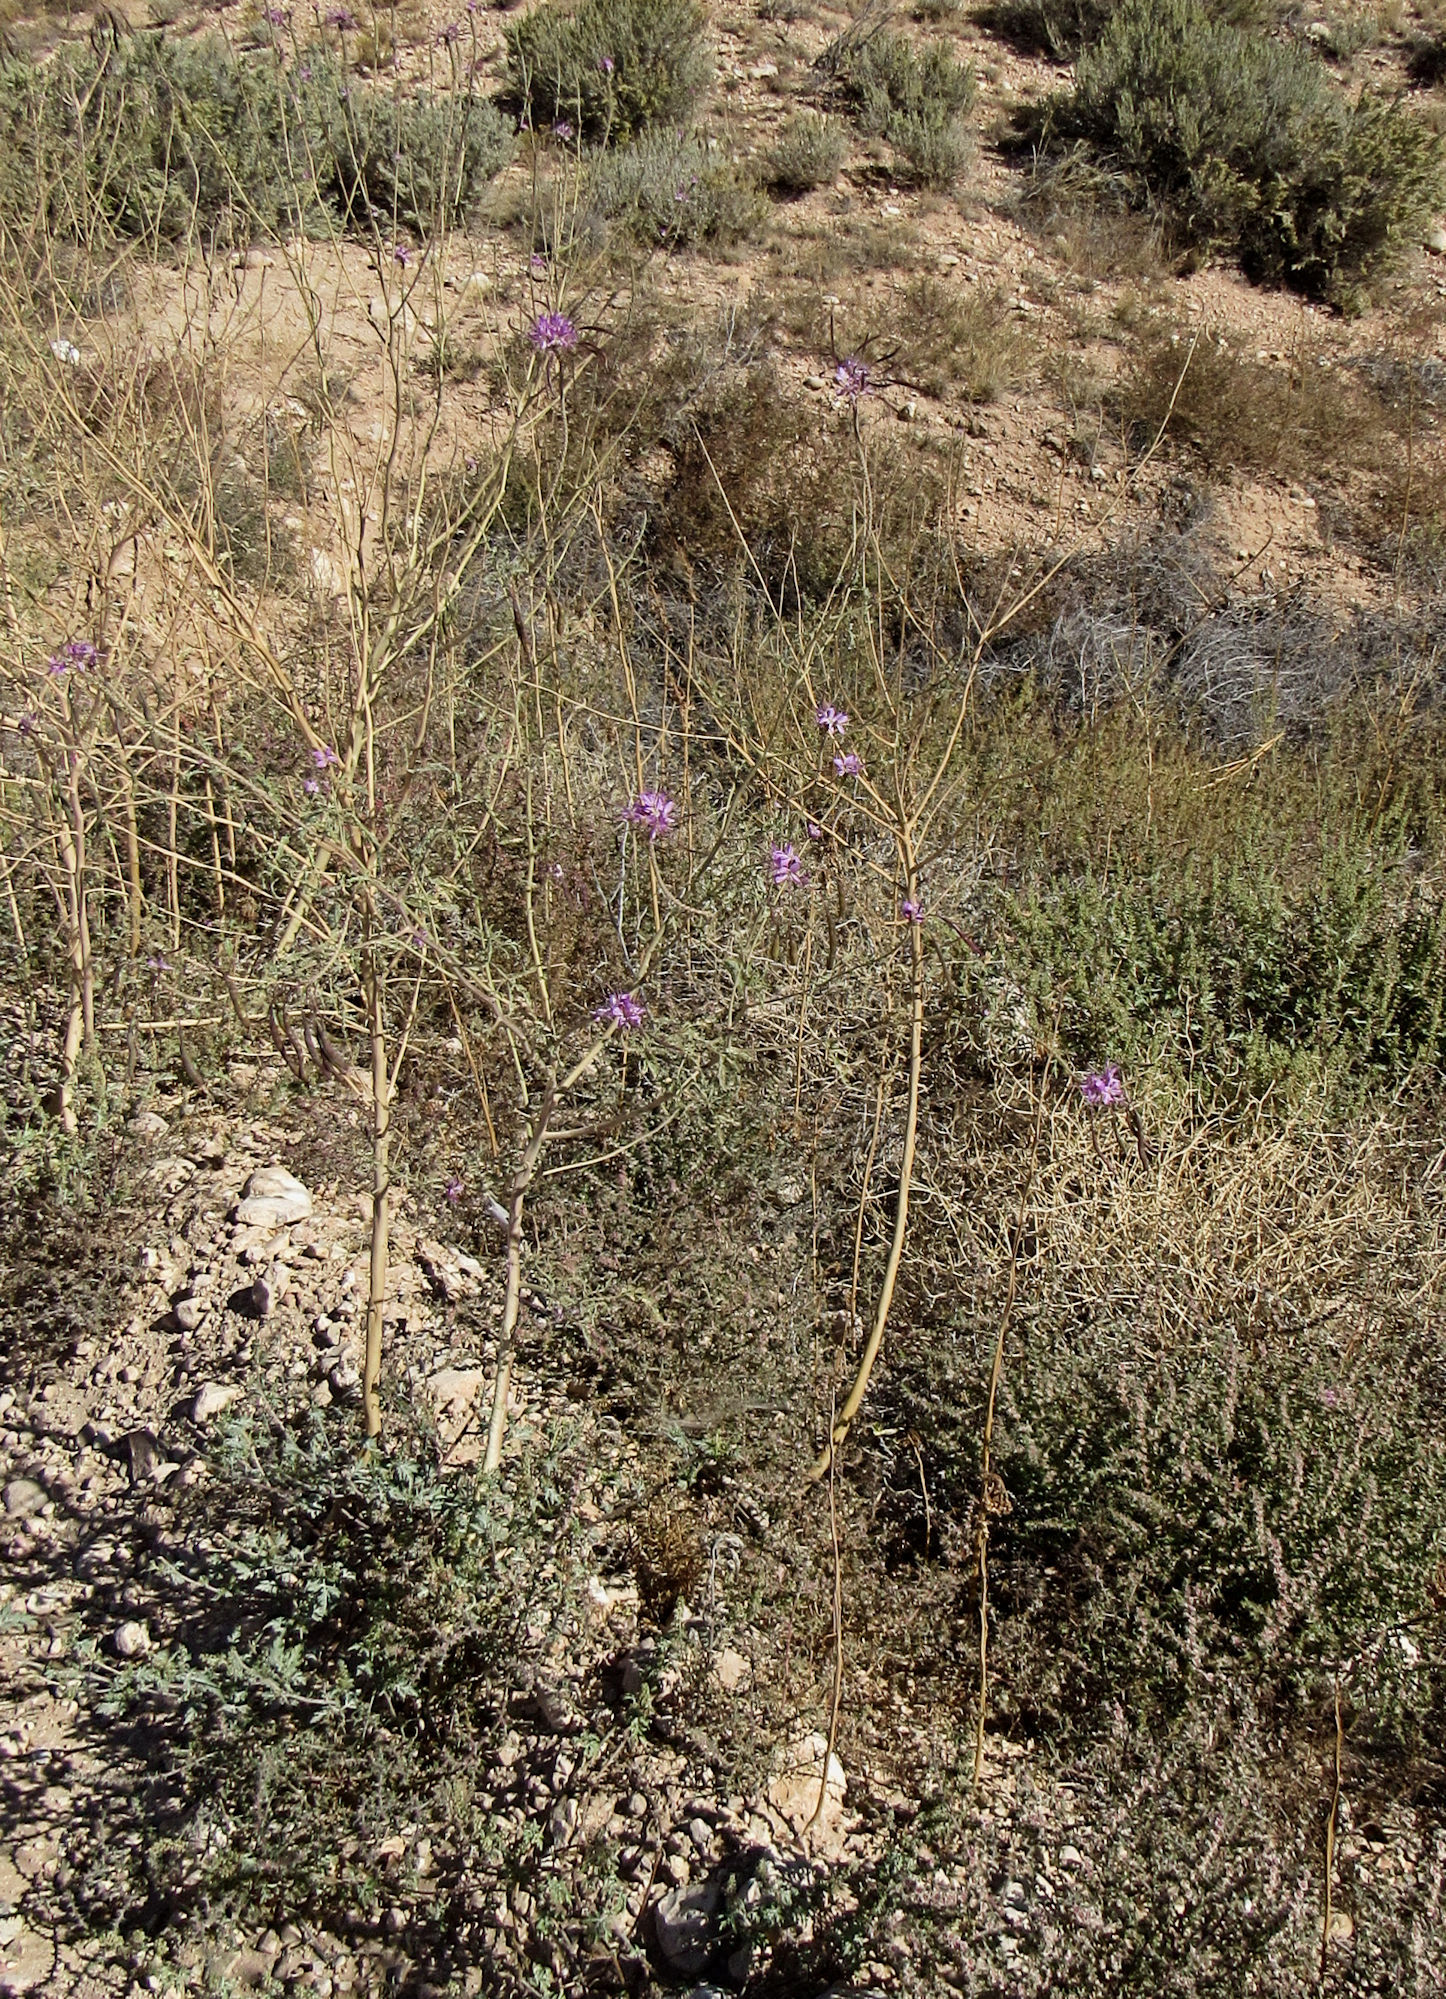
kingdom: Plantae
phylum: Tracheophyta
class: Magnoliopsida
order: Brassicales
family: Cleomaceae
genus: Cleomella
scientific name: Cleomella serrulata
